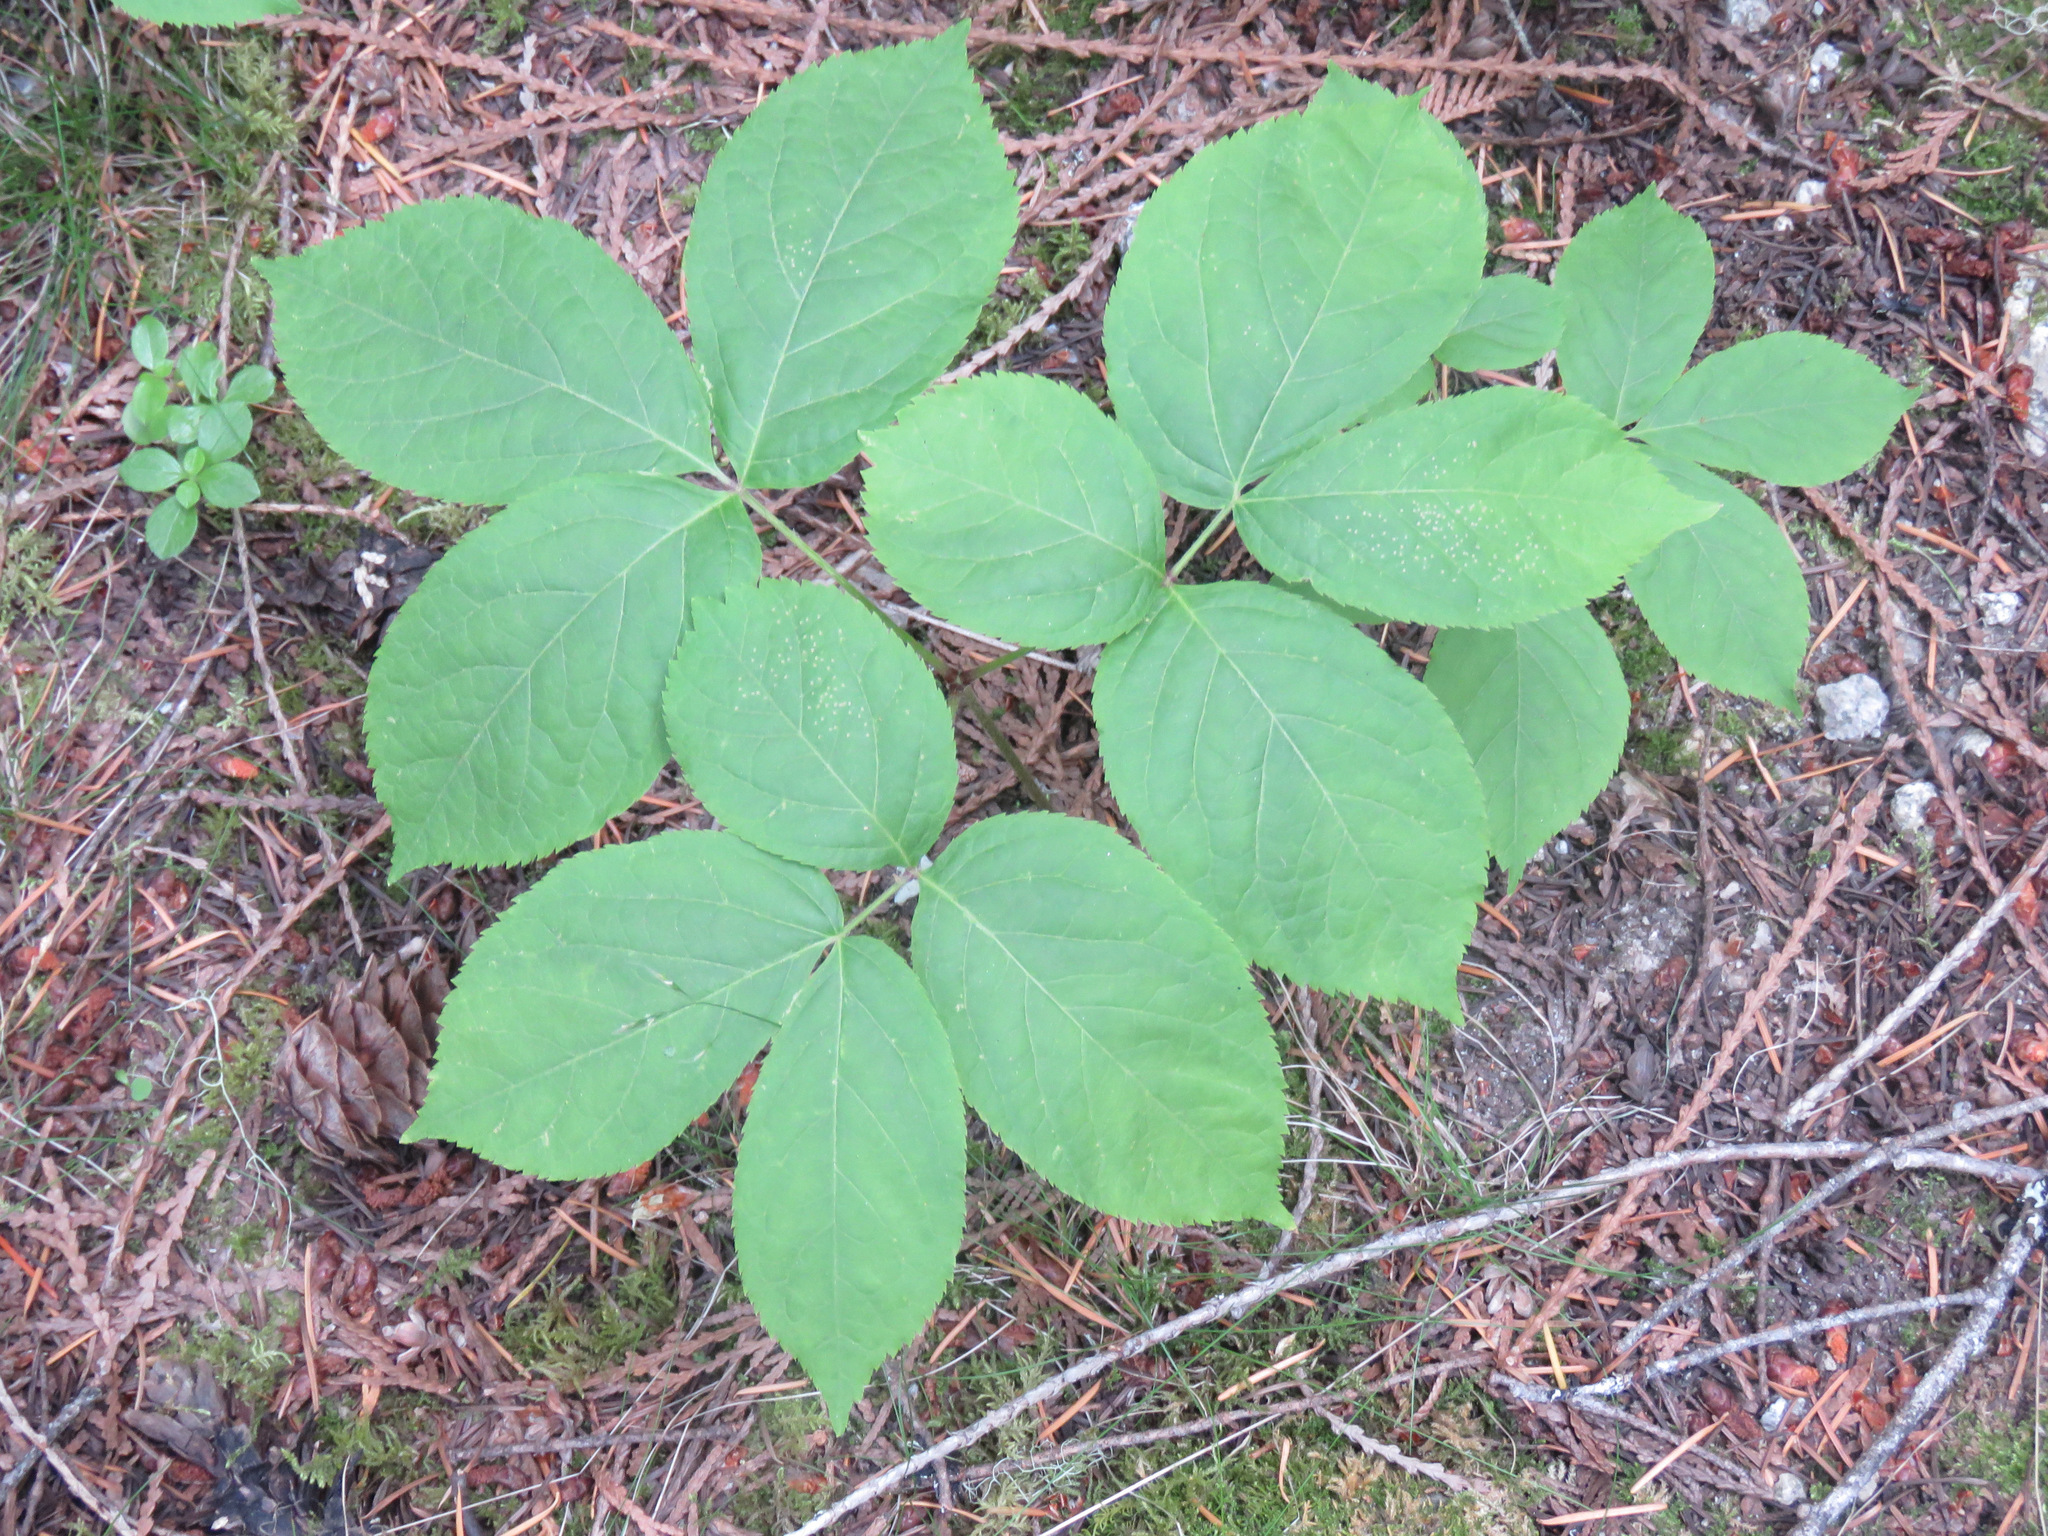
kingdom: Plantae
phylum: Tracheophyta
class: Magnoliopsida
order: Apiales
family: Araliaceae
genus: Aralia
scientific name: Aralia nudicaulis
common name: Wild sarsaparilla
